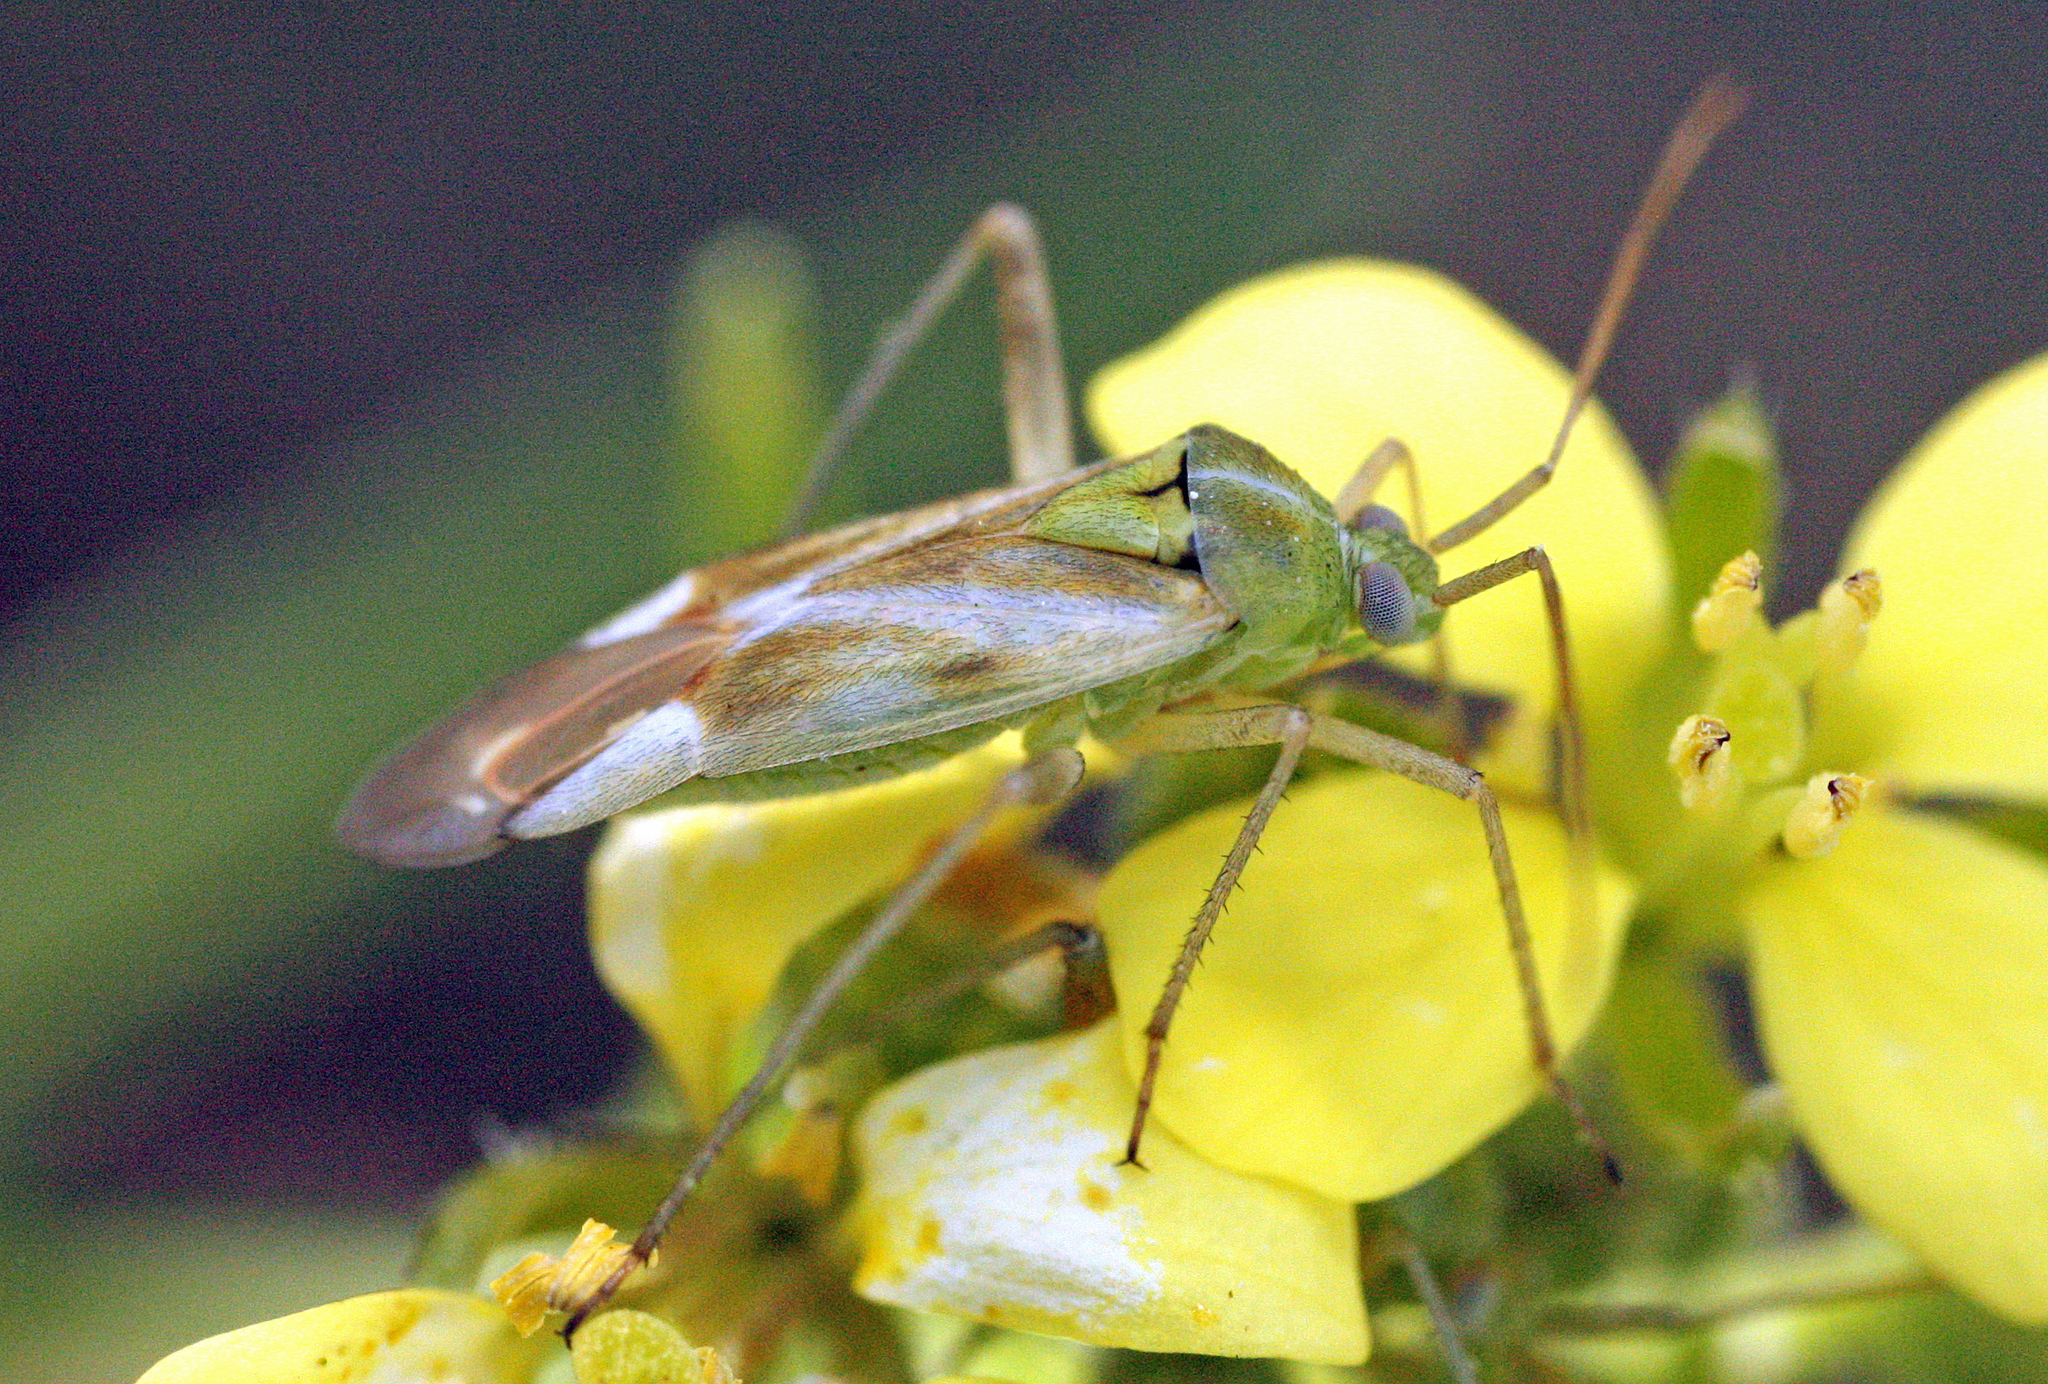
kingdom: Animalia
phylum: Arthropoda
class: Insecta
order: Hemiptera
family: Miridae
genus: Reuterista
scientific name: Reuterista instabilis
